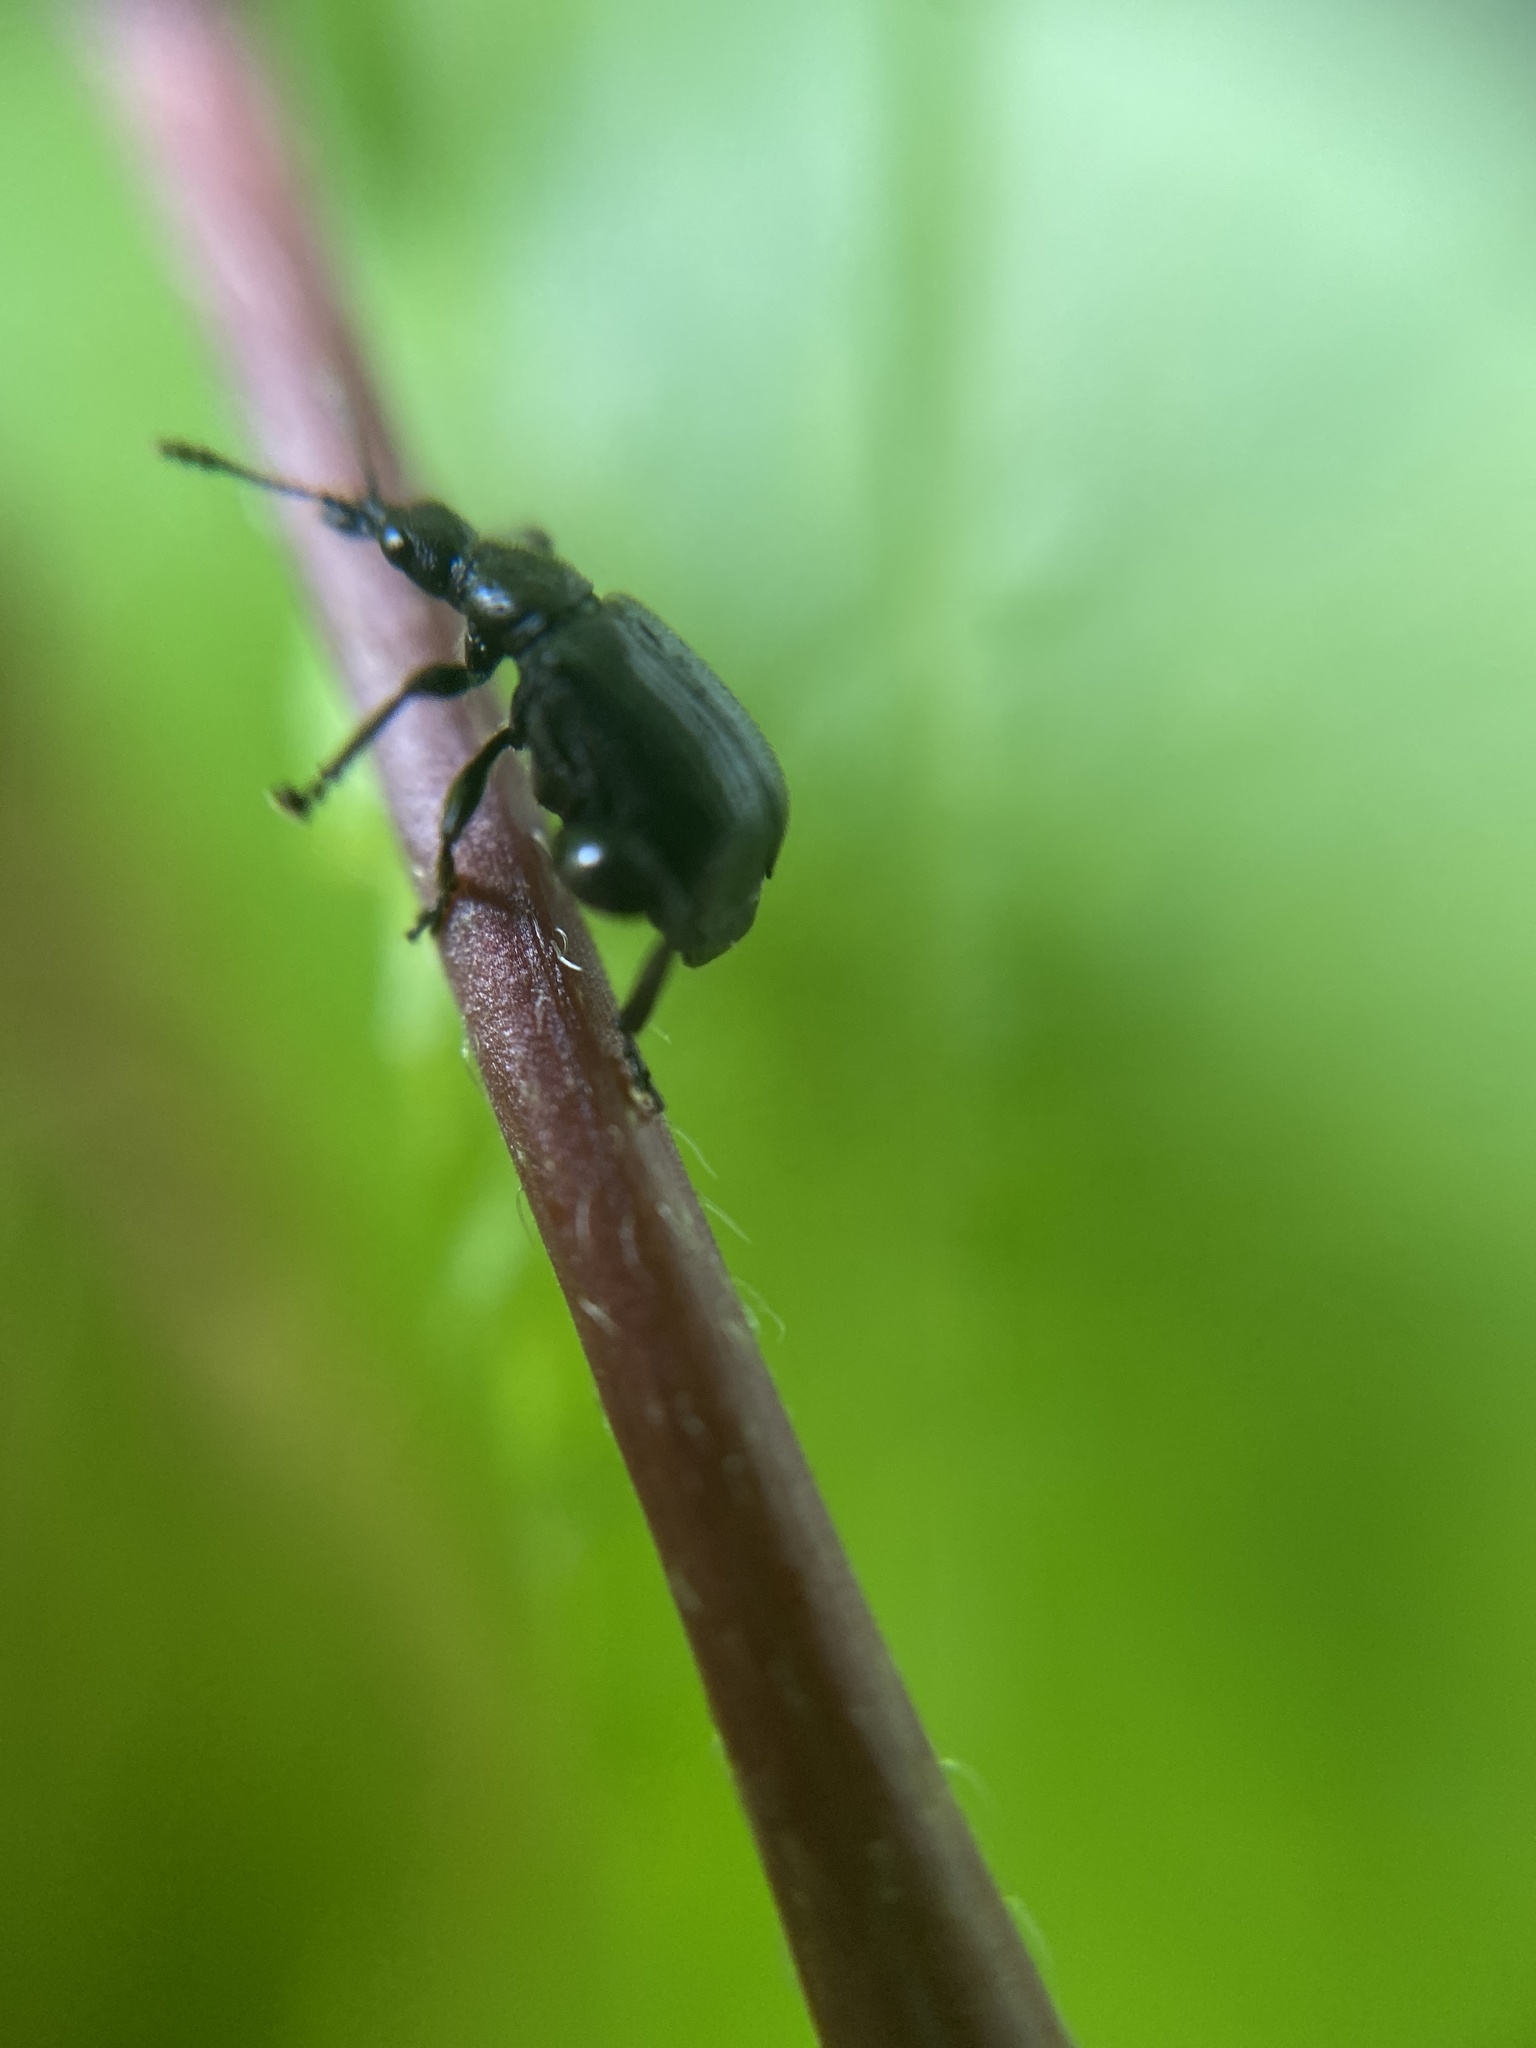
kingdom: Animalia
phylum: Arthropoda
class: Insecta
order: Coleoptera
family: Attelabidae
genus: Deporaus
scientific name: Deporaus betulae
